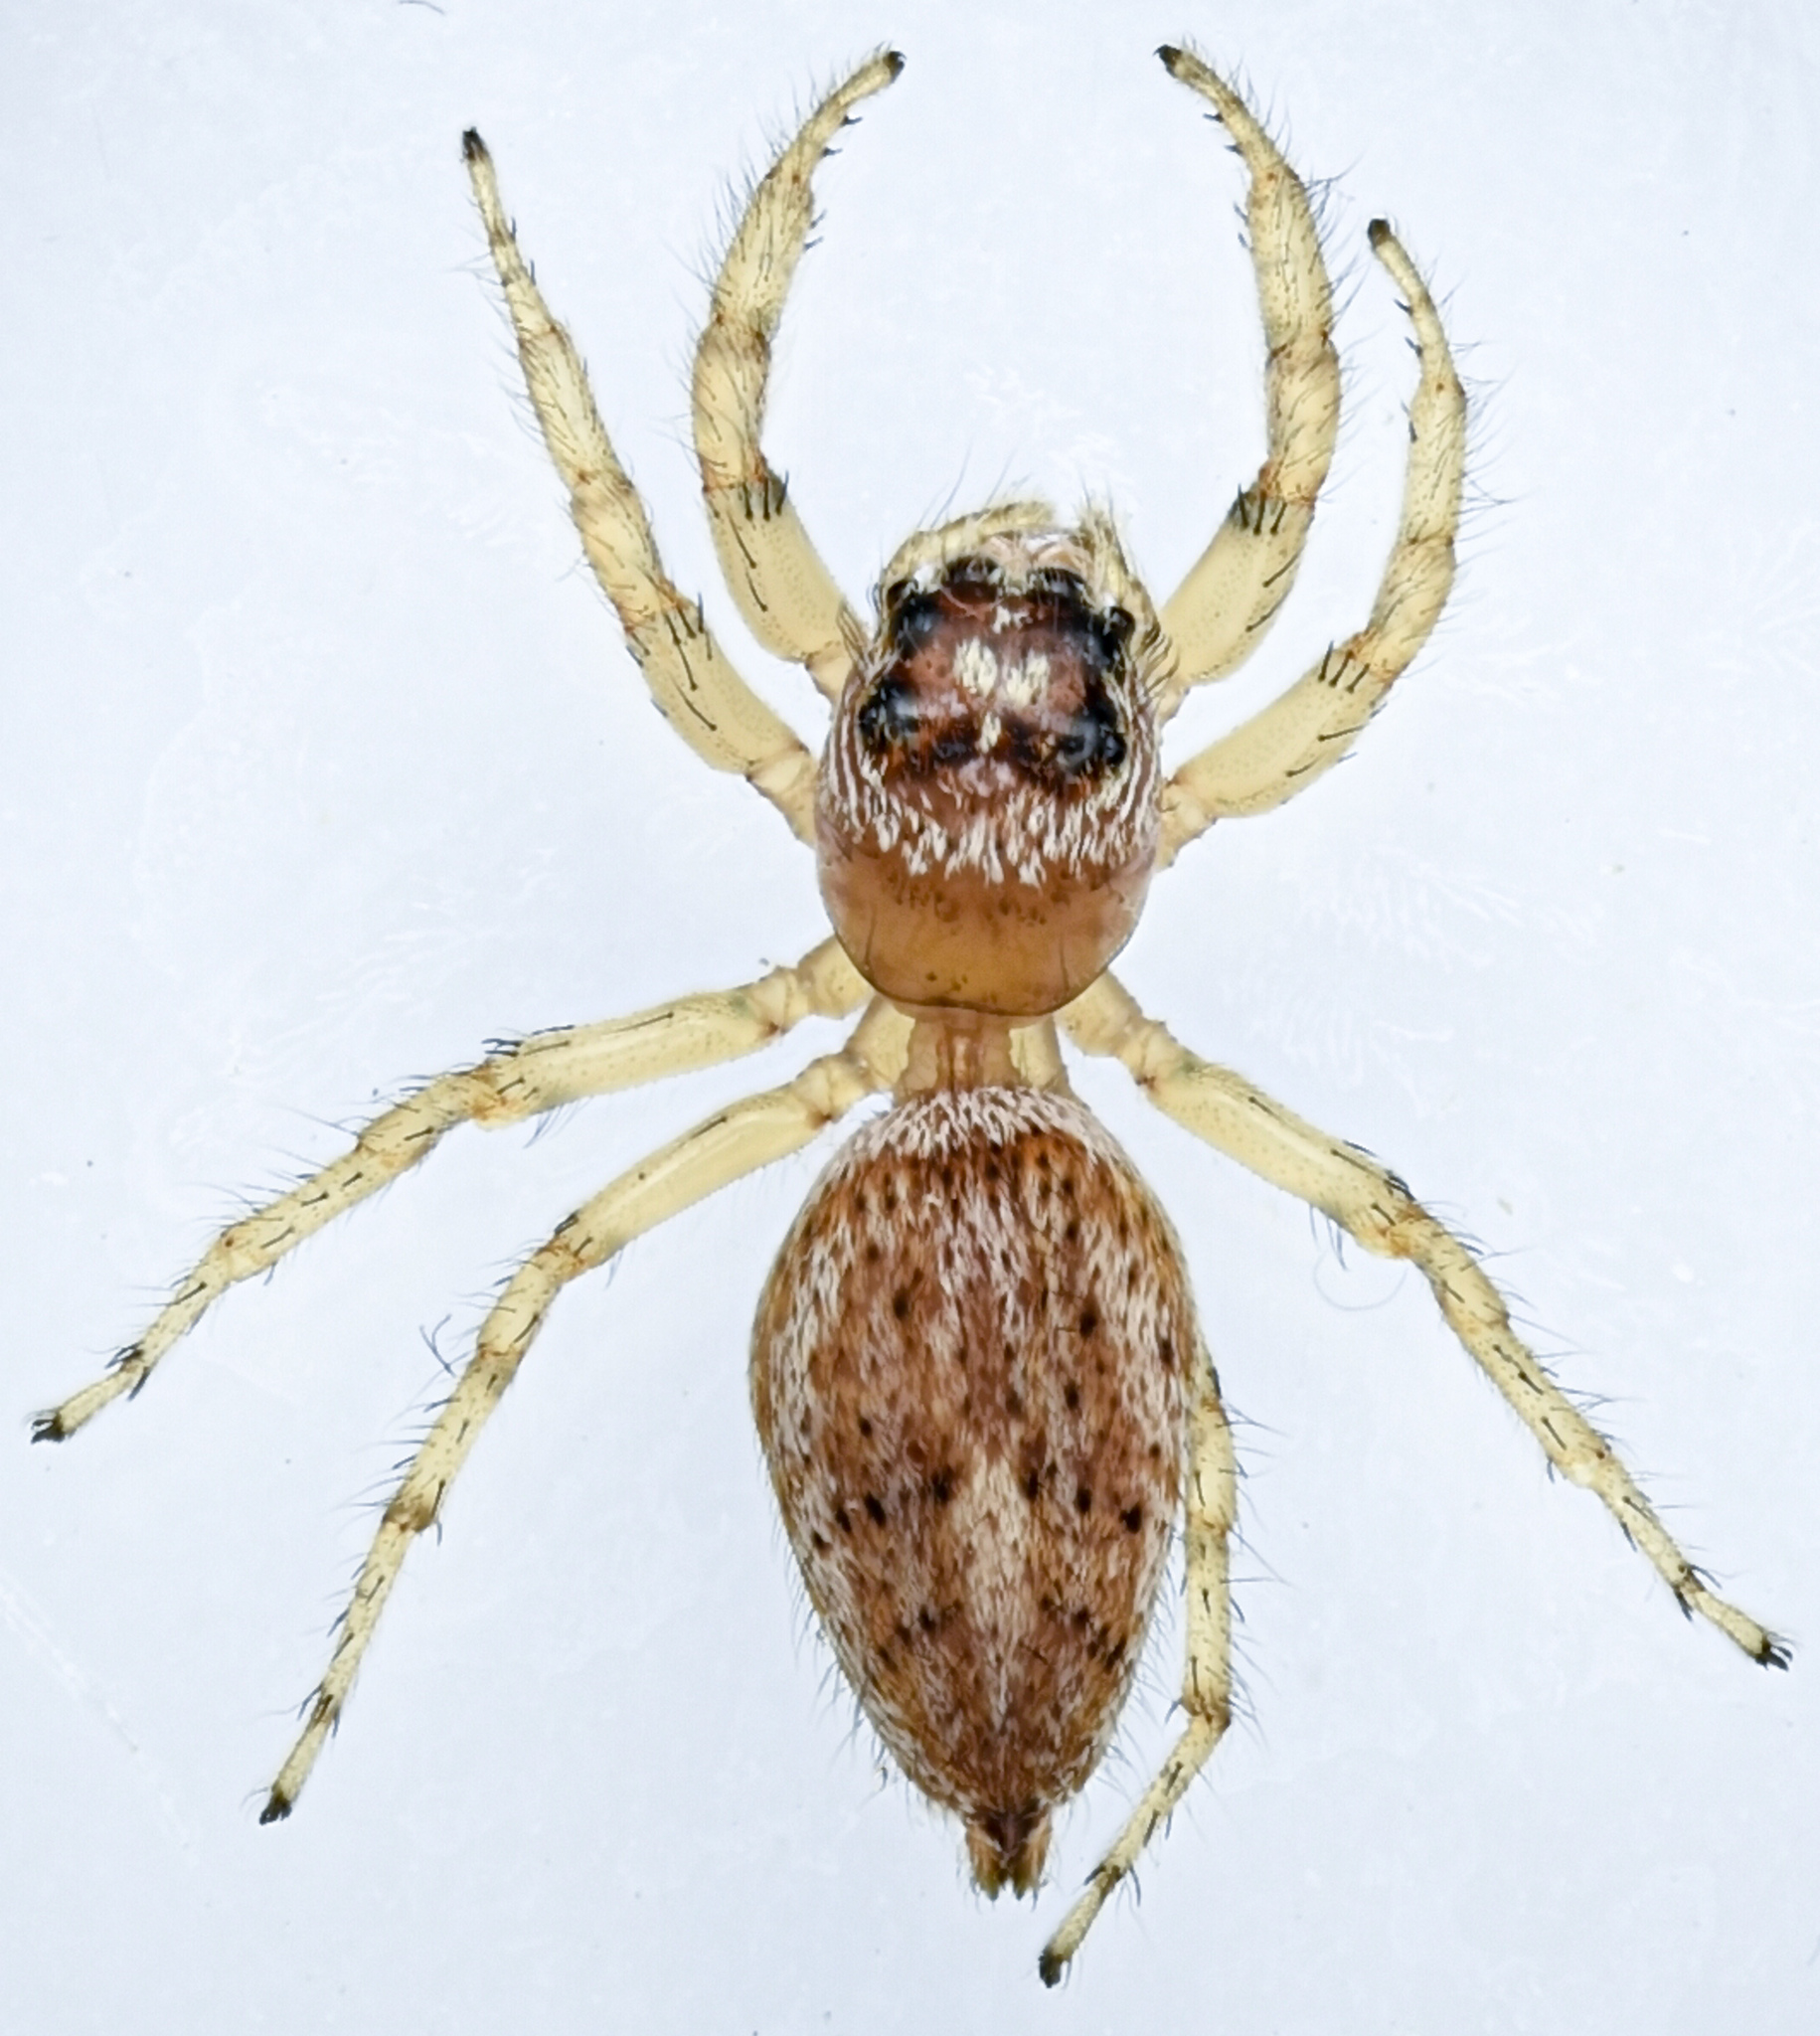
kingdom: Animalia
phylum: Arthropoda
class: Arachnida
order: Araneae
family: Salticidae
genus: Colonus
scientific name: Colonus hesperus
